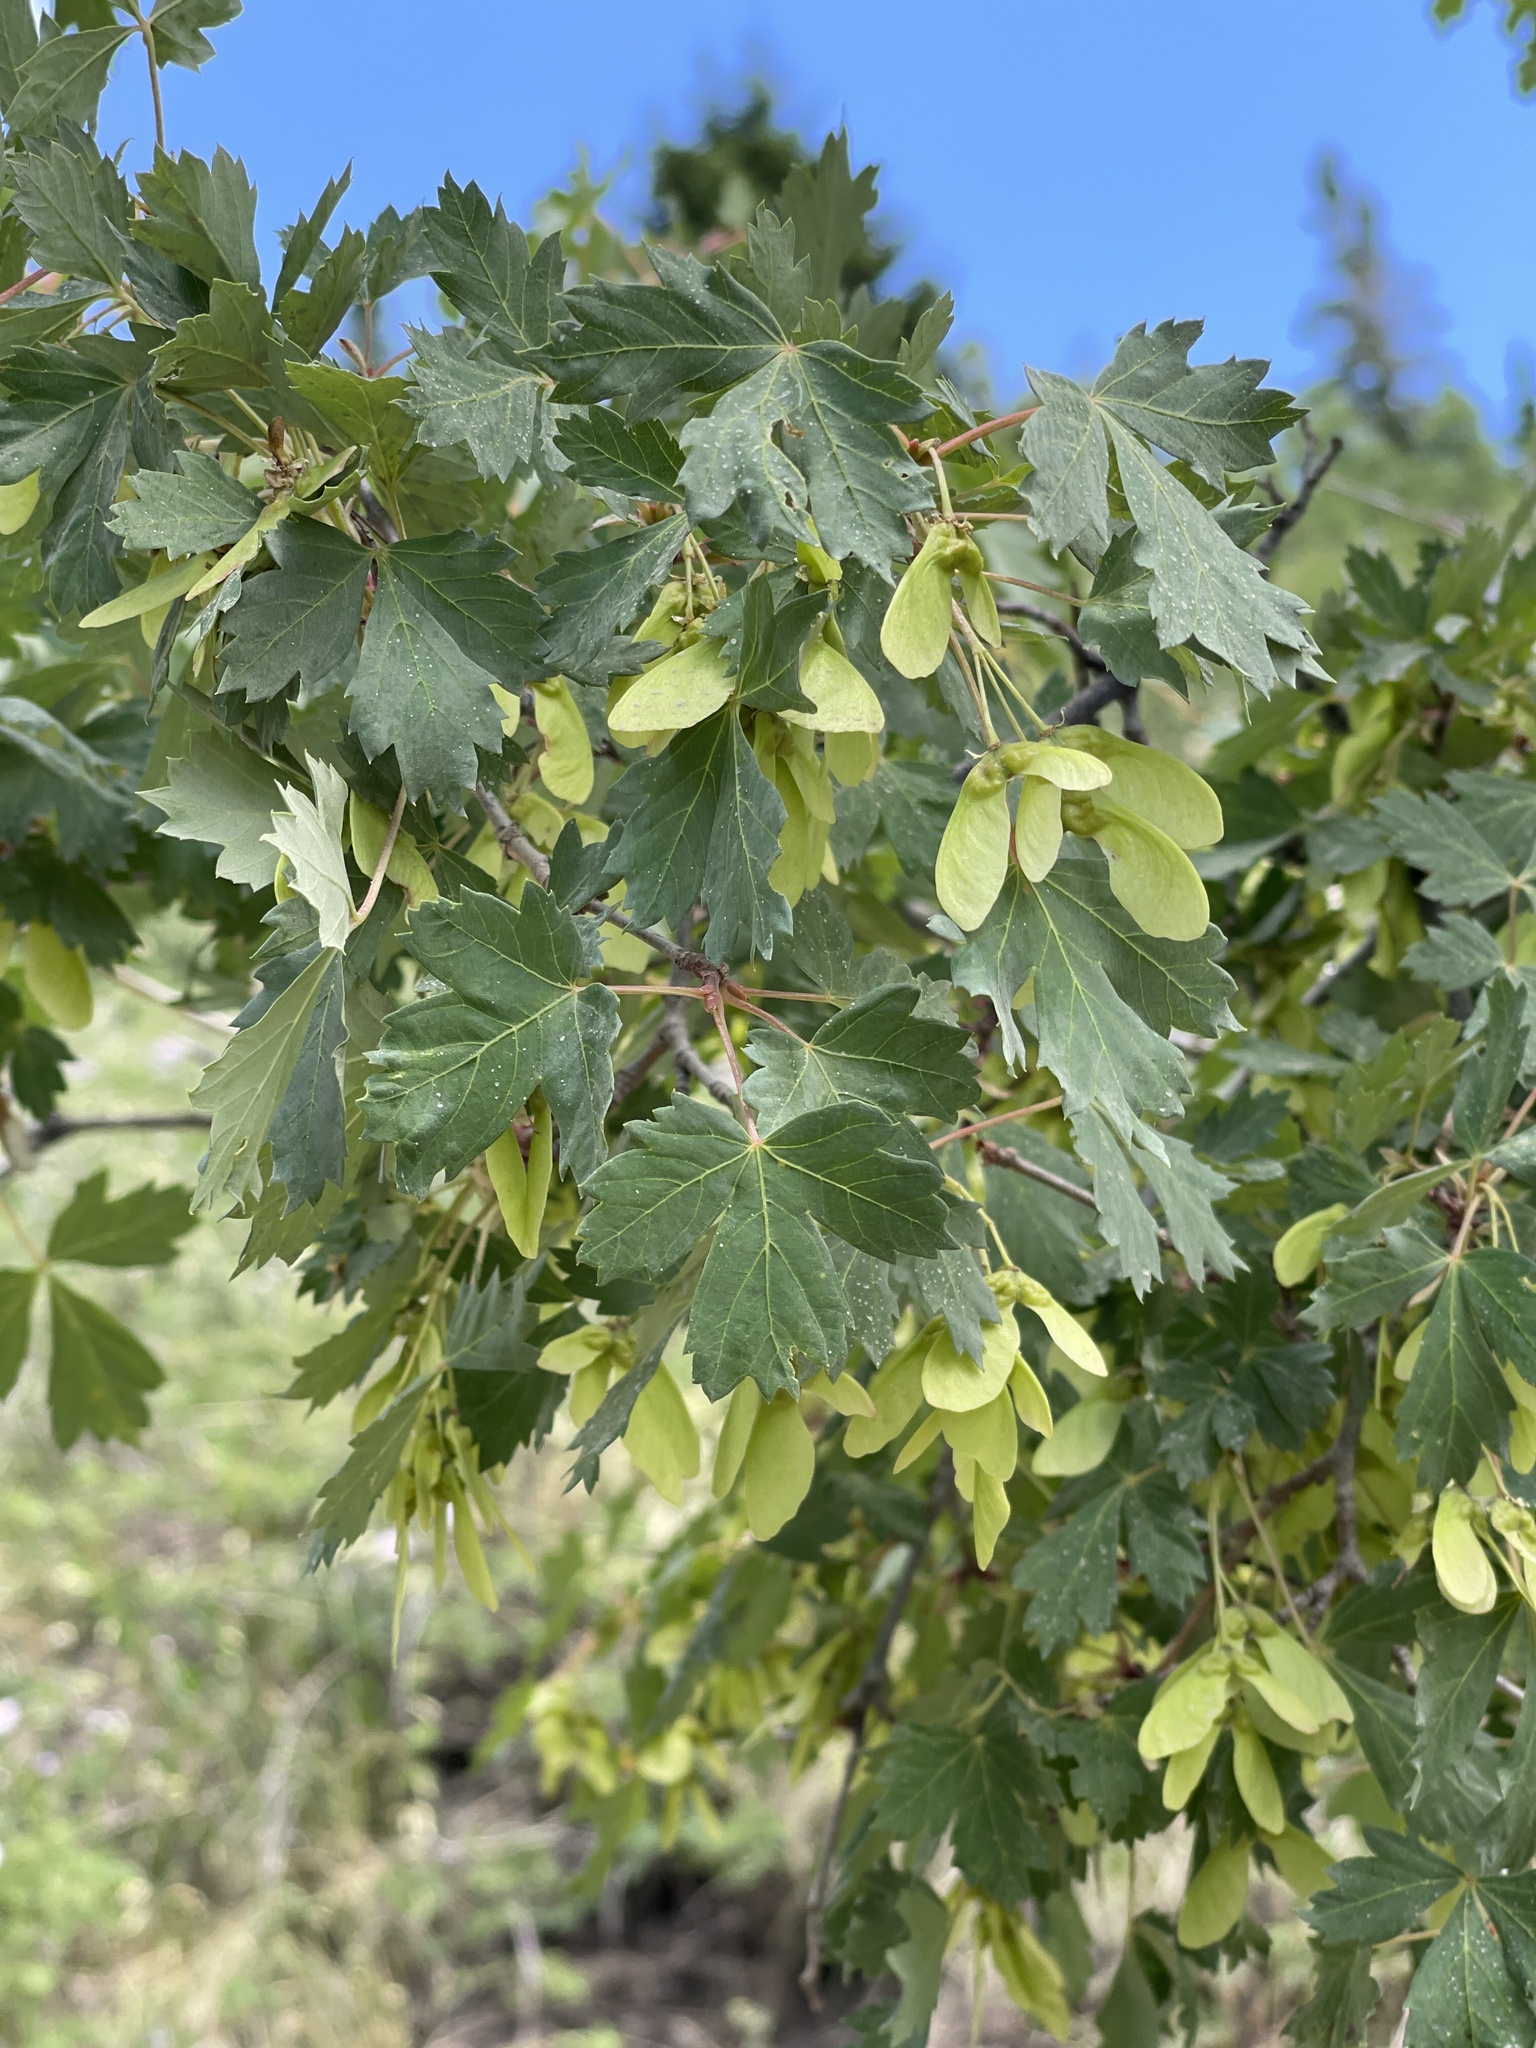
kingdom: Plantae
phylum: Tracheophyta
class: Magnoliopsida
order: Sapindales
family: Sapindaceae
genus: Acer
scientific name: Acer glabrum
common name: Rocky mountain maple
